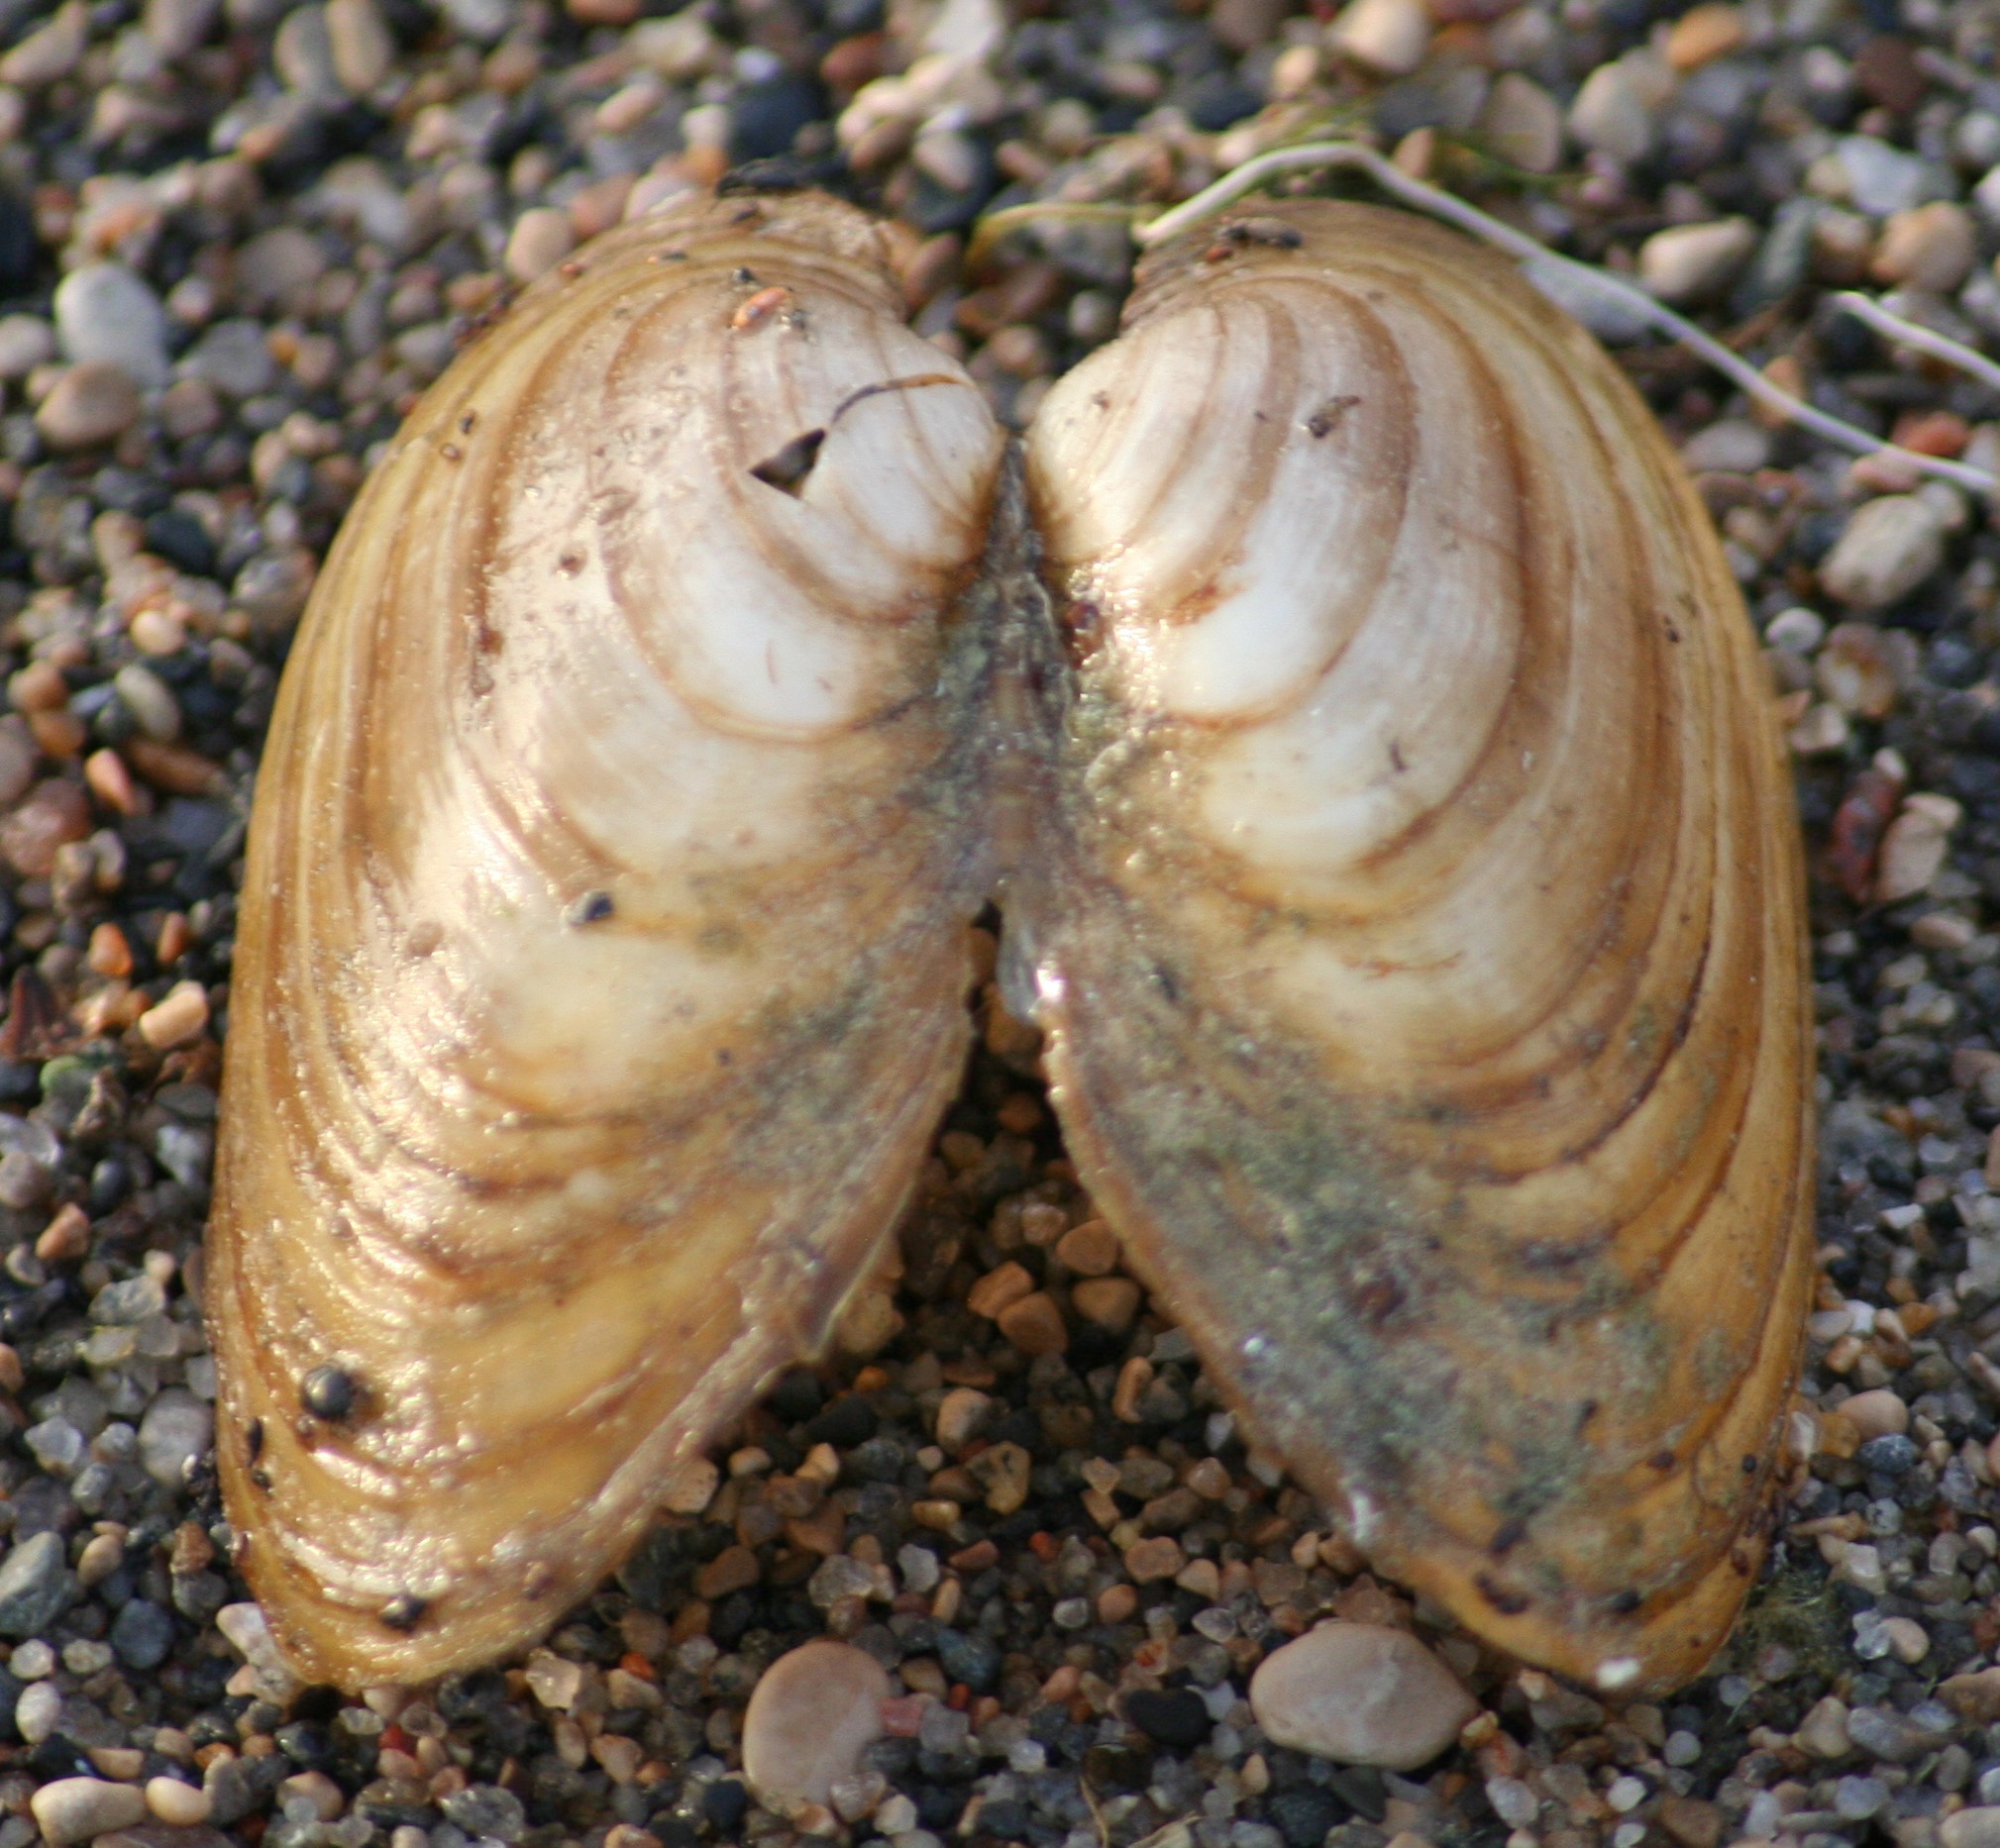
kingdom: Animalia
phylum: Mollusca
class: Bivalvia
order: Unionida
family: Unionidae
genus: Pyganodon
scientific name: Pyganodon grandis
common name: Giant floater
